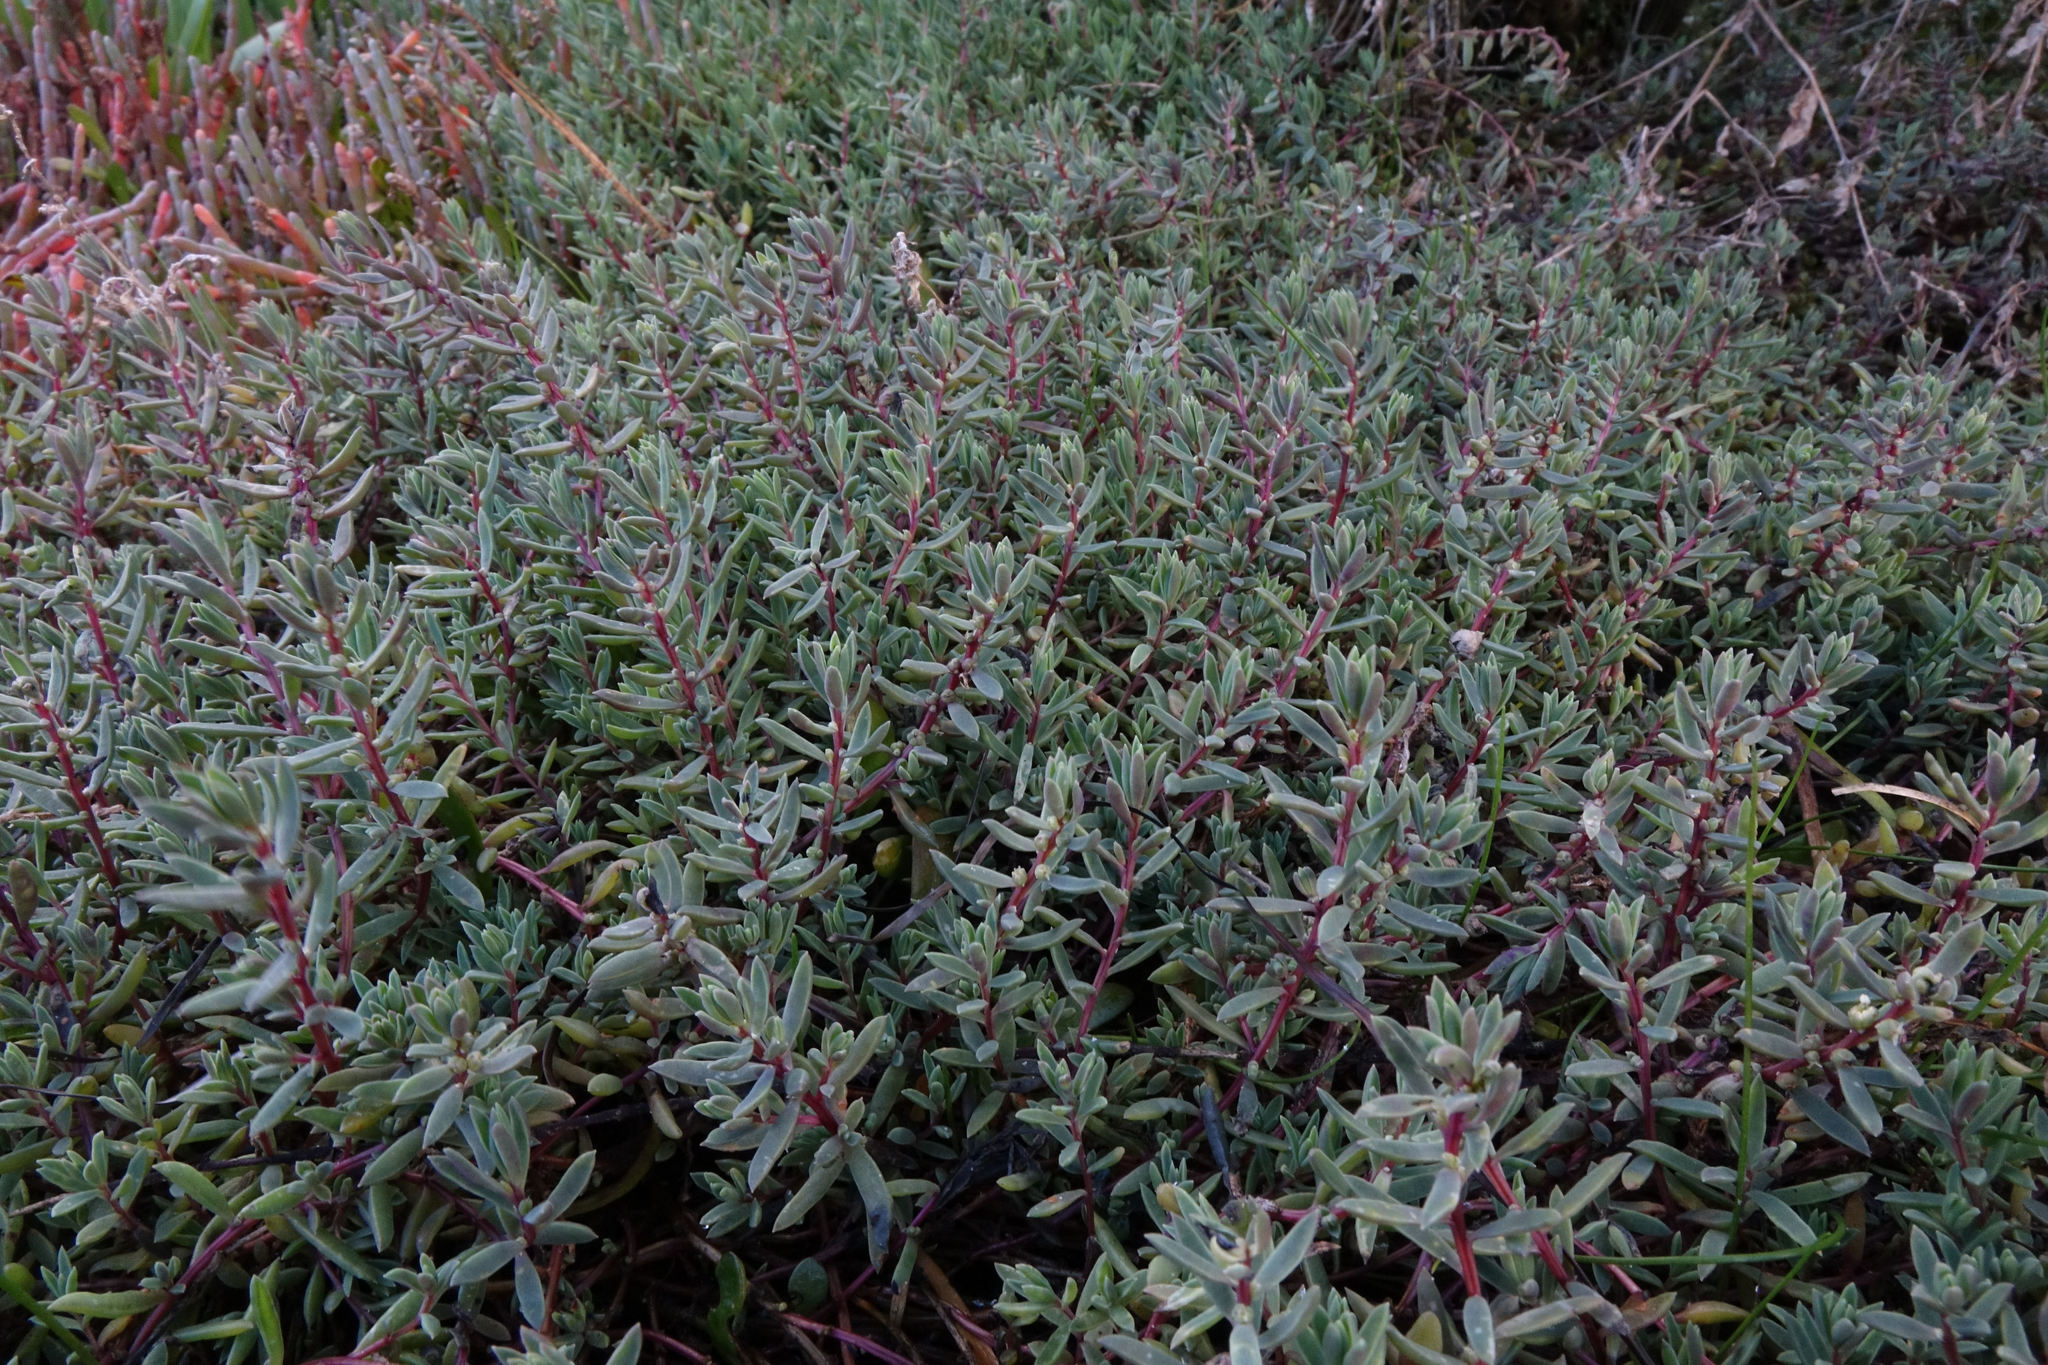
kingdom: Plantae
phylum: Tracheophyta
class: Magnoliopsida
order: Caryophyllales
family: Amaranthaceae
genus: Suaeda
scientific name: Suaeda novae-zelandiae
